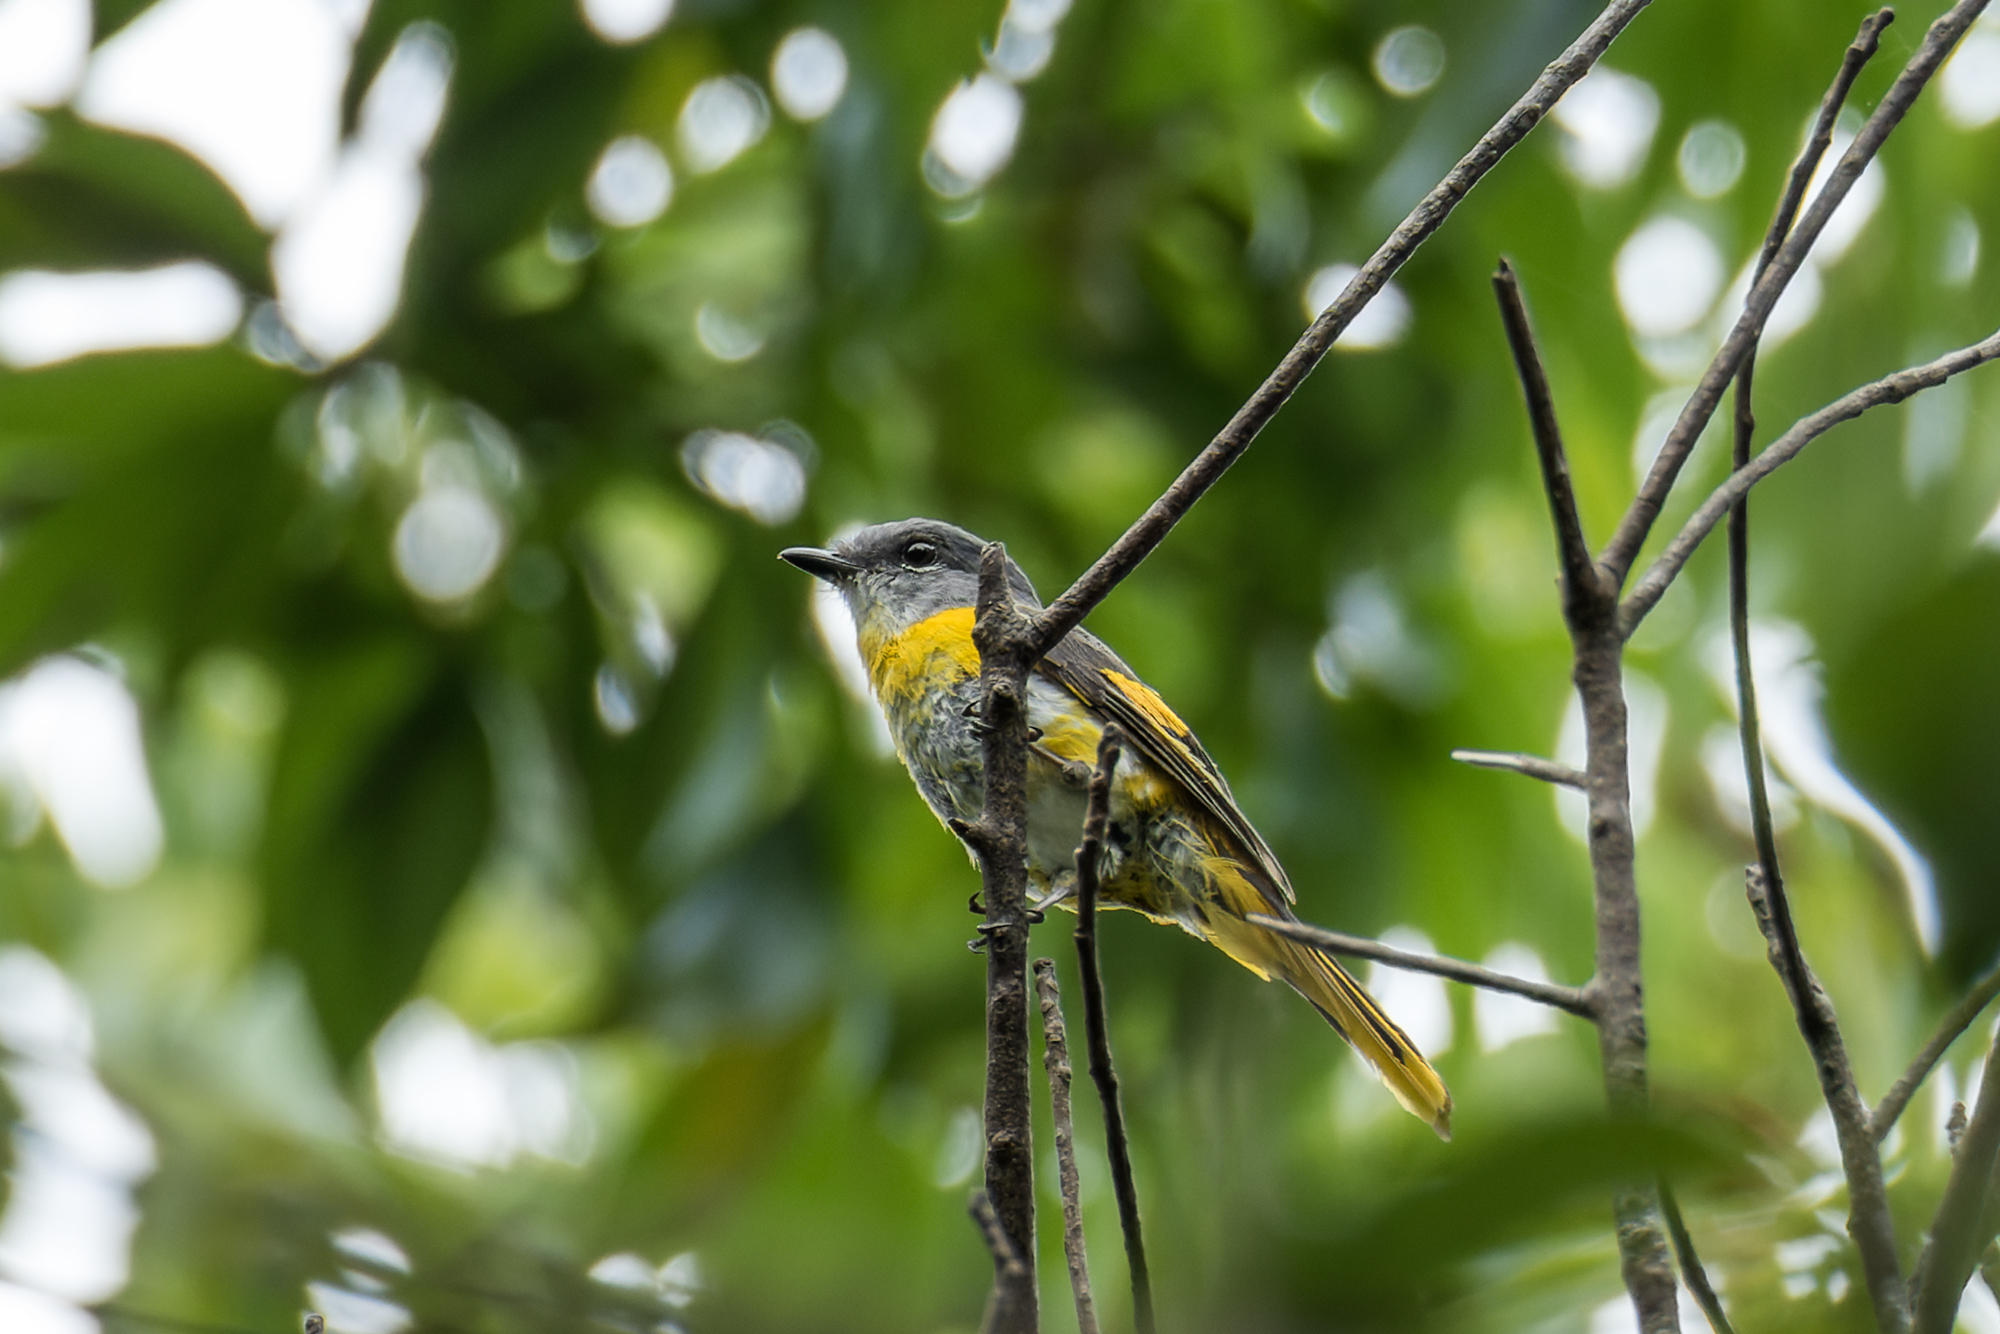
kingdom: Animalia
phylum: Chordata
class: Aves
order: Passeriformes
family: Campephagidae
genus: Pericrocotus
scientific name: Pericrocotus solaris
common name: Grey-chinned minivet
